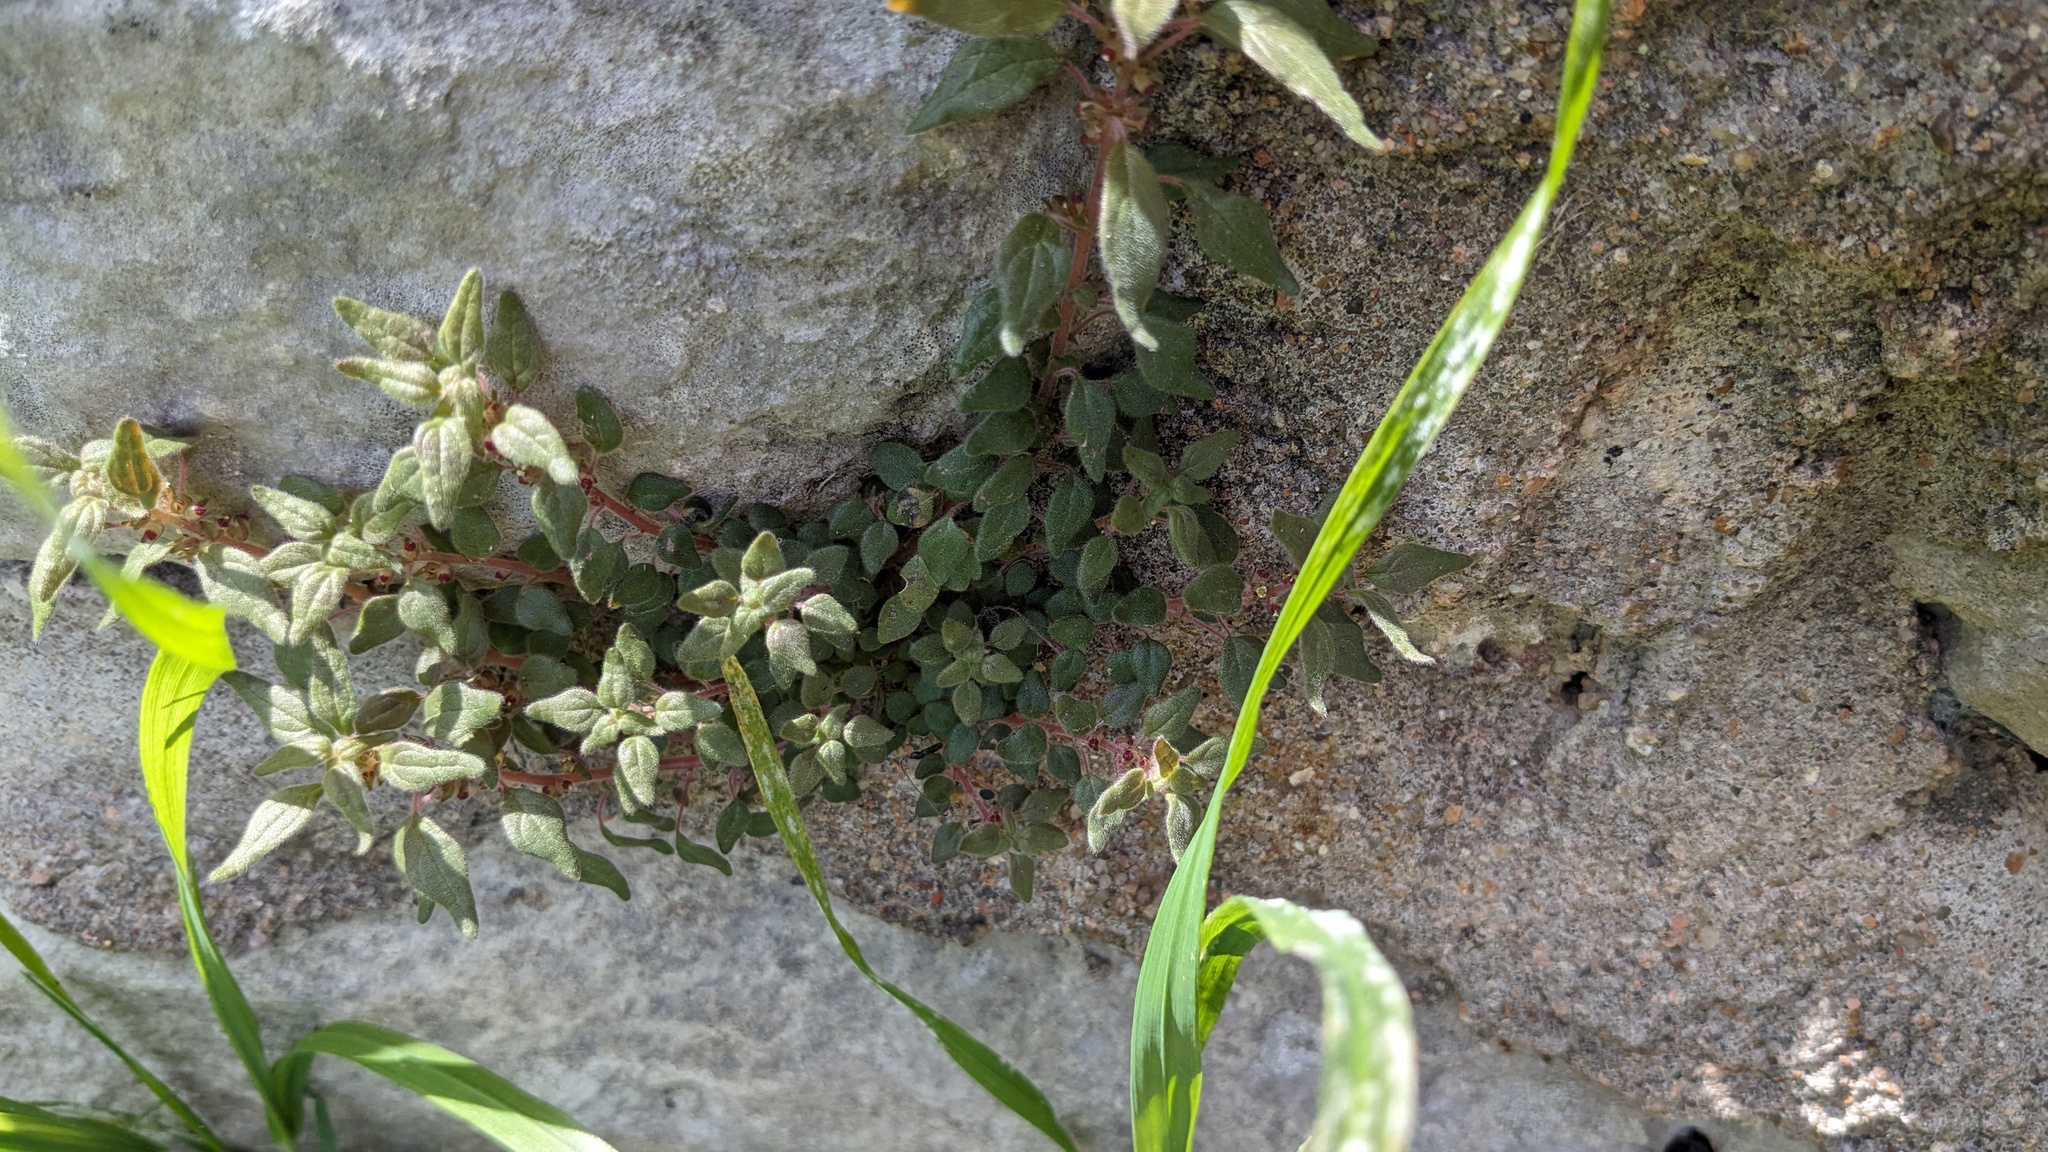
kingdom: Plantae
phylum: Tracheophyta
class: Magnoliopsida
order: Rosales
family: Urticaceae
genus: Parietaria
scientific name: Parietaria pensylvanica
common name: Pennsylvania pellitory
